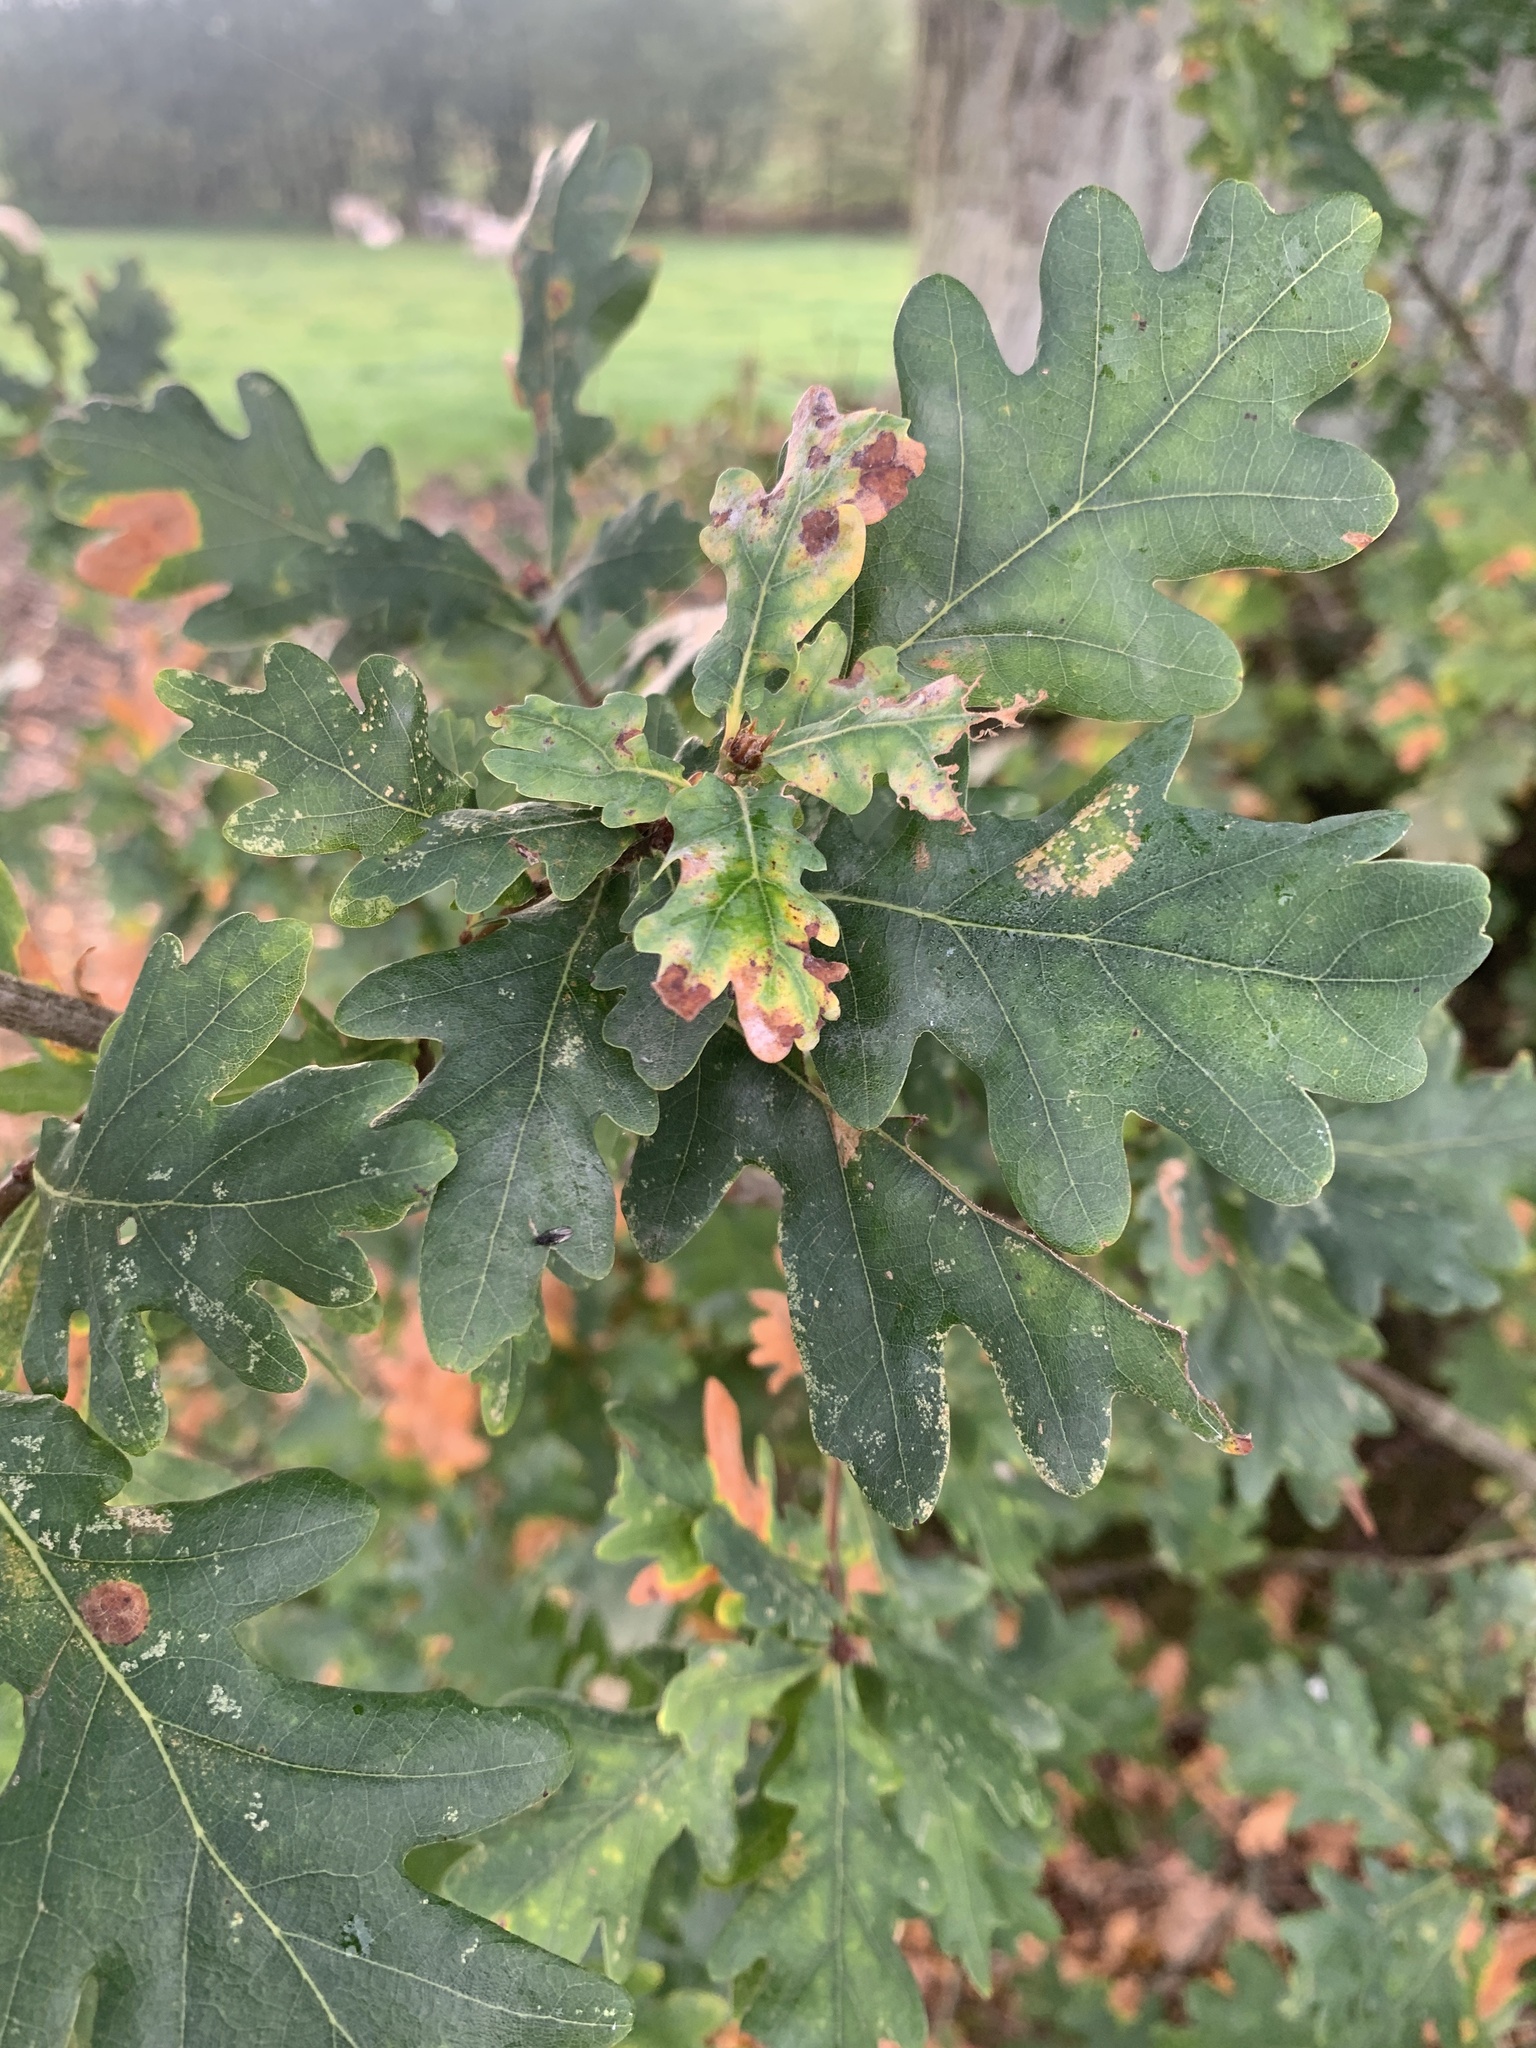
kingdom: Plantae
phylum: Tracheophyta
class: Magnoliopsida
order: Fagales
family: Fagaceae
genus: Quercus
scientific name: Quercus robur
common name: Pedunculate oak
